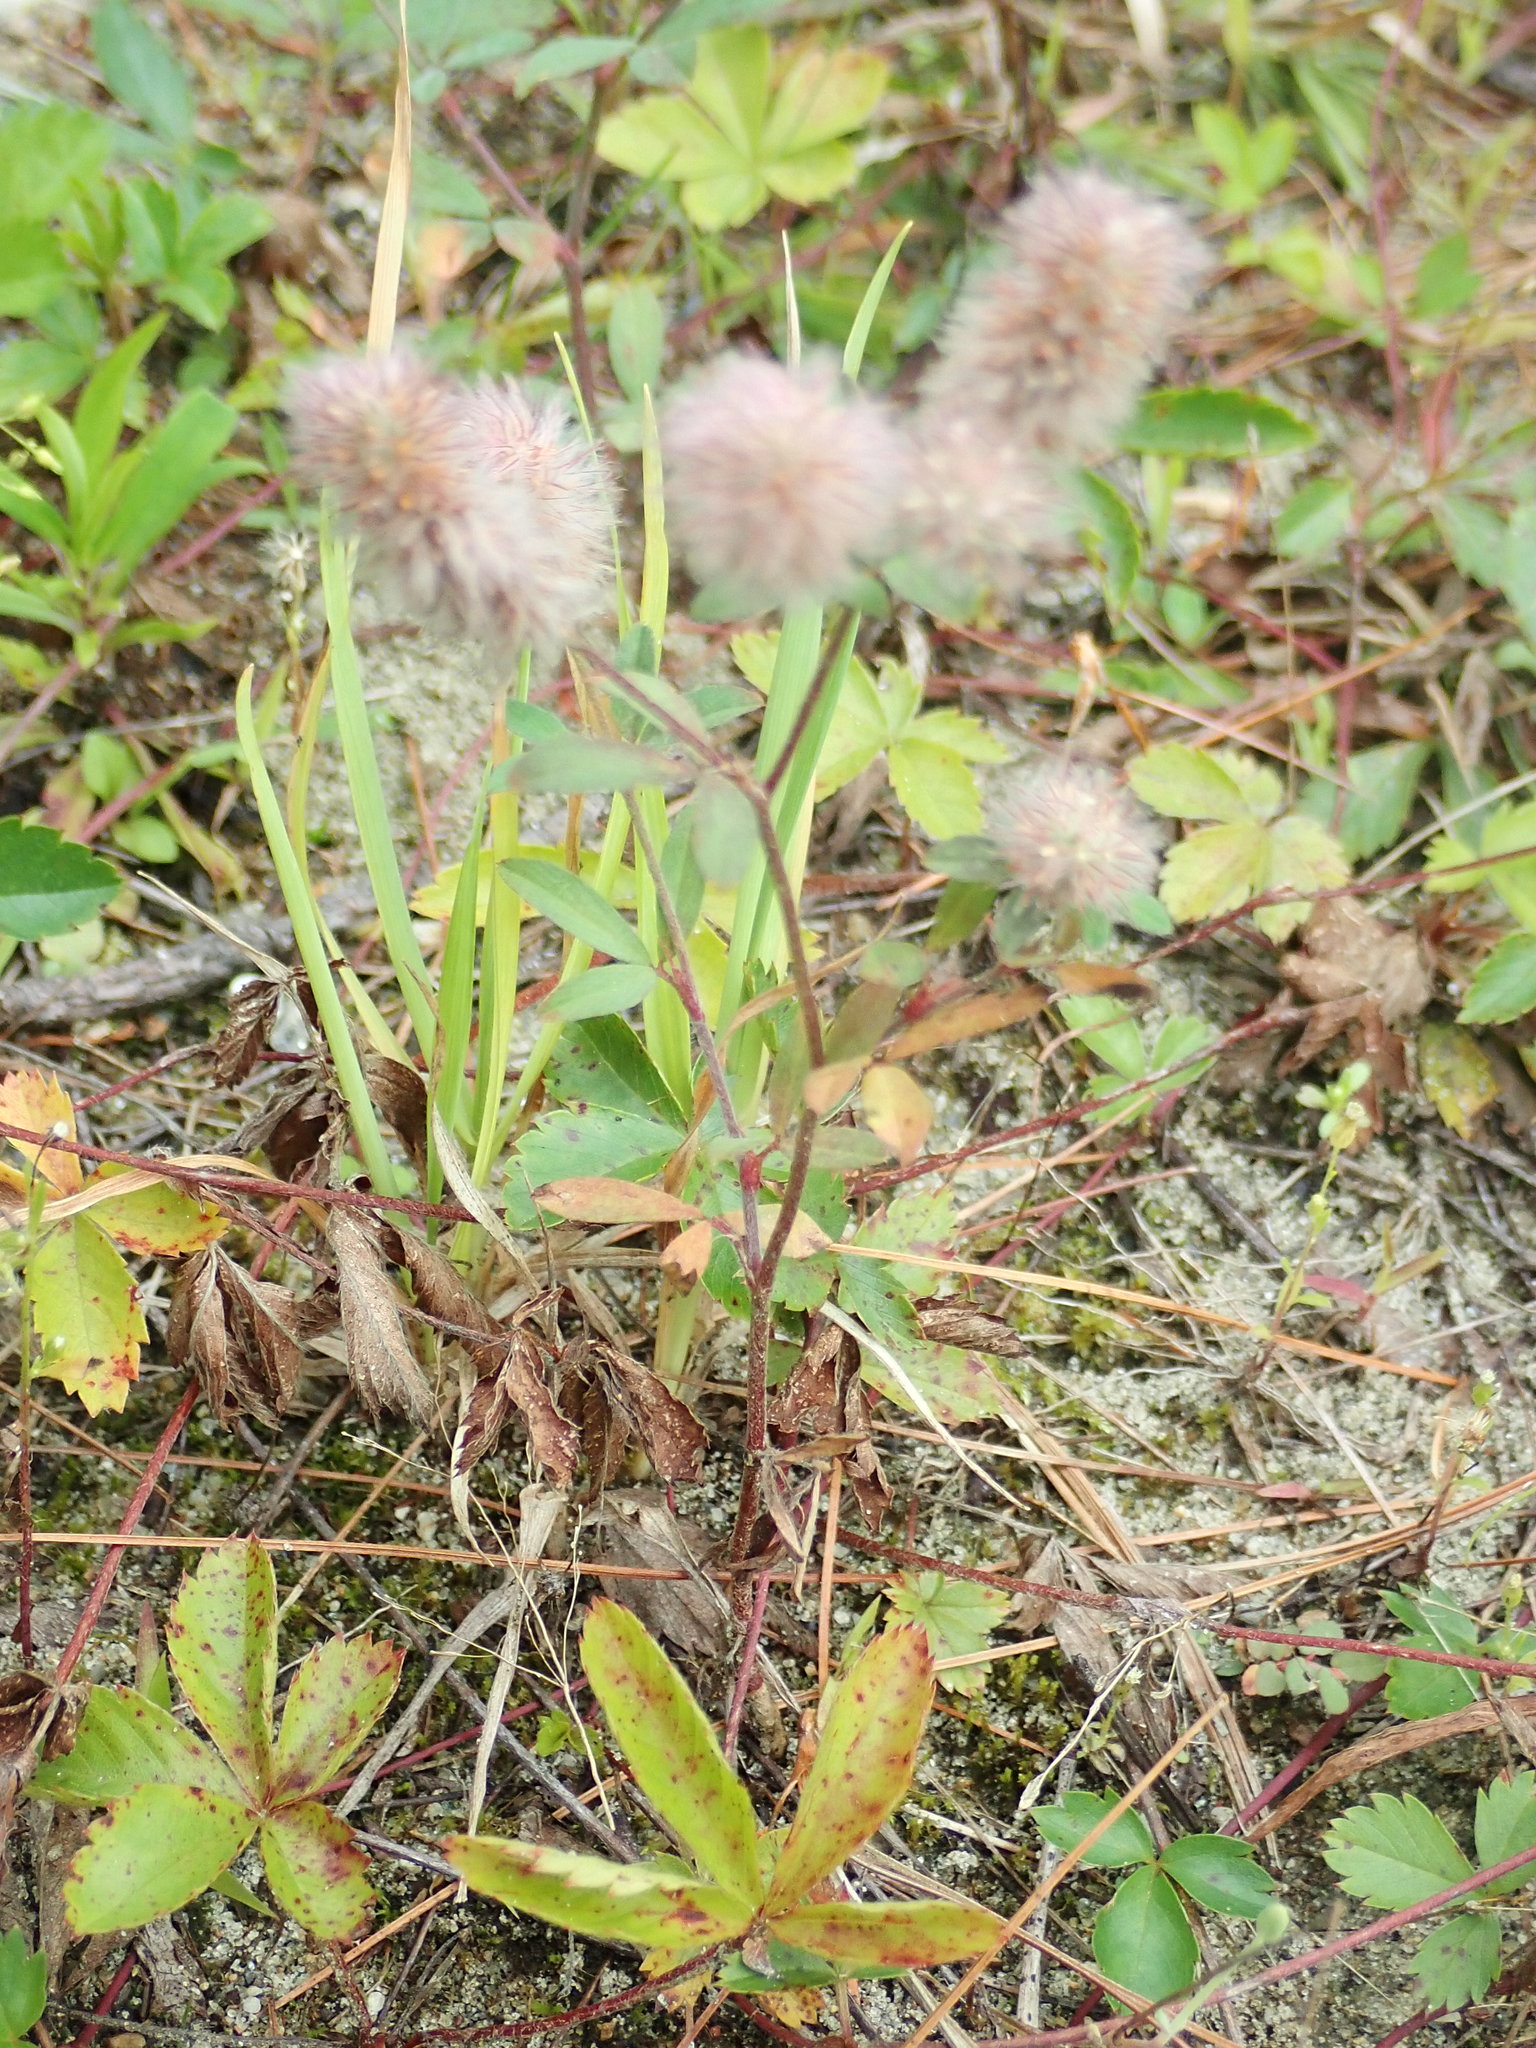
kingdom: Plantae
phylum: Tracheophyta
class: Magnoliopsida
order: Fabales
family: Fabaceae
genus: Trifolium
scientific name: Trifolium arvense
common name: Hare's-foot clover
